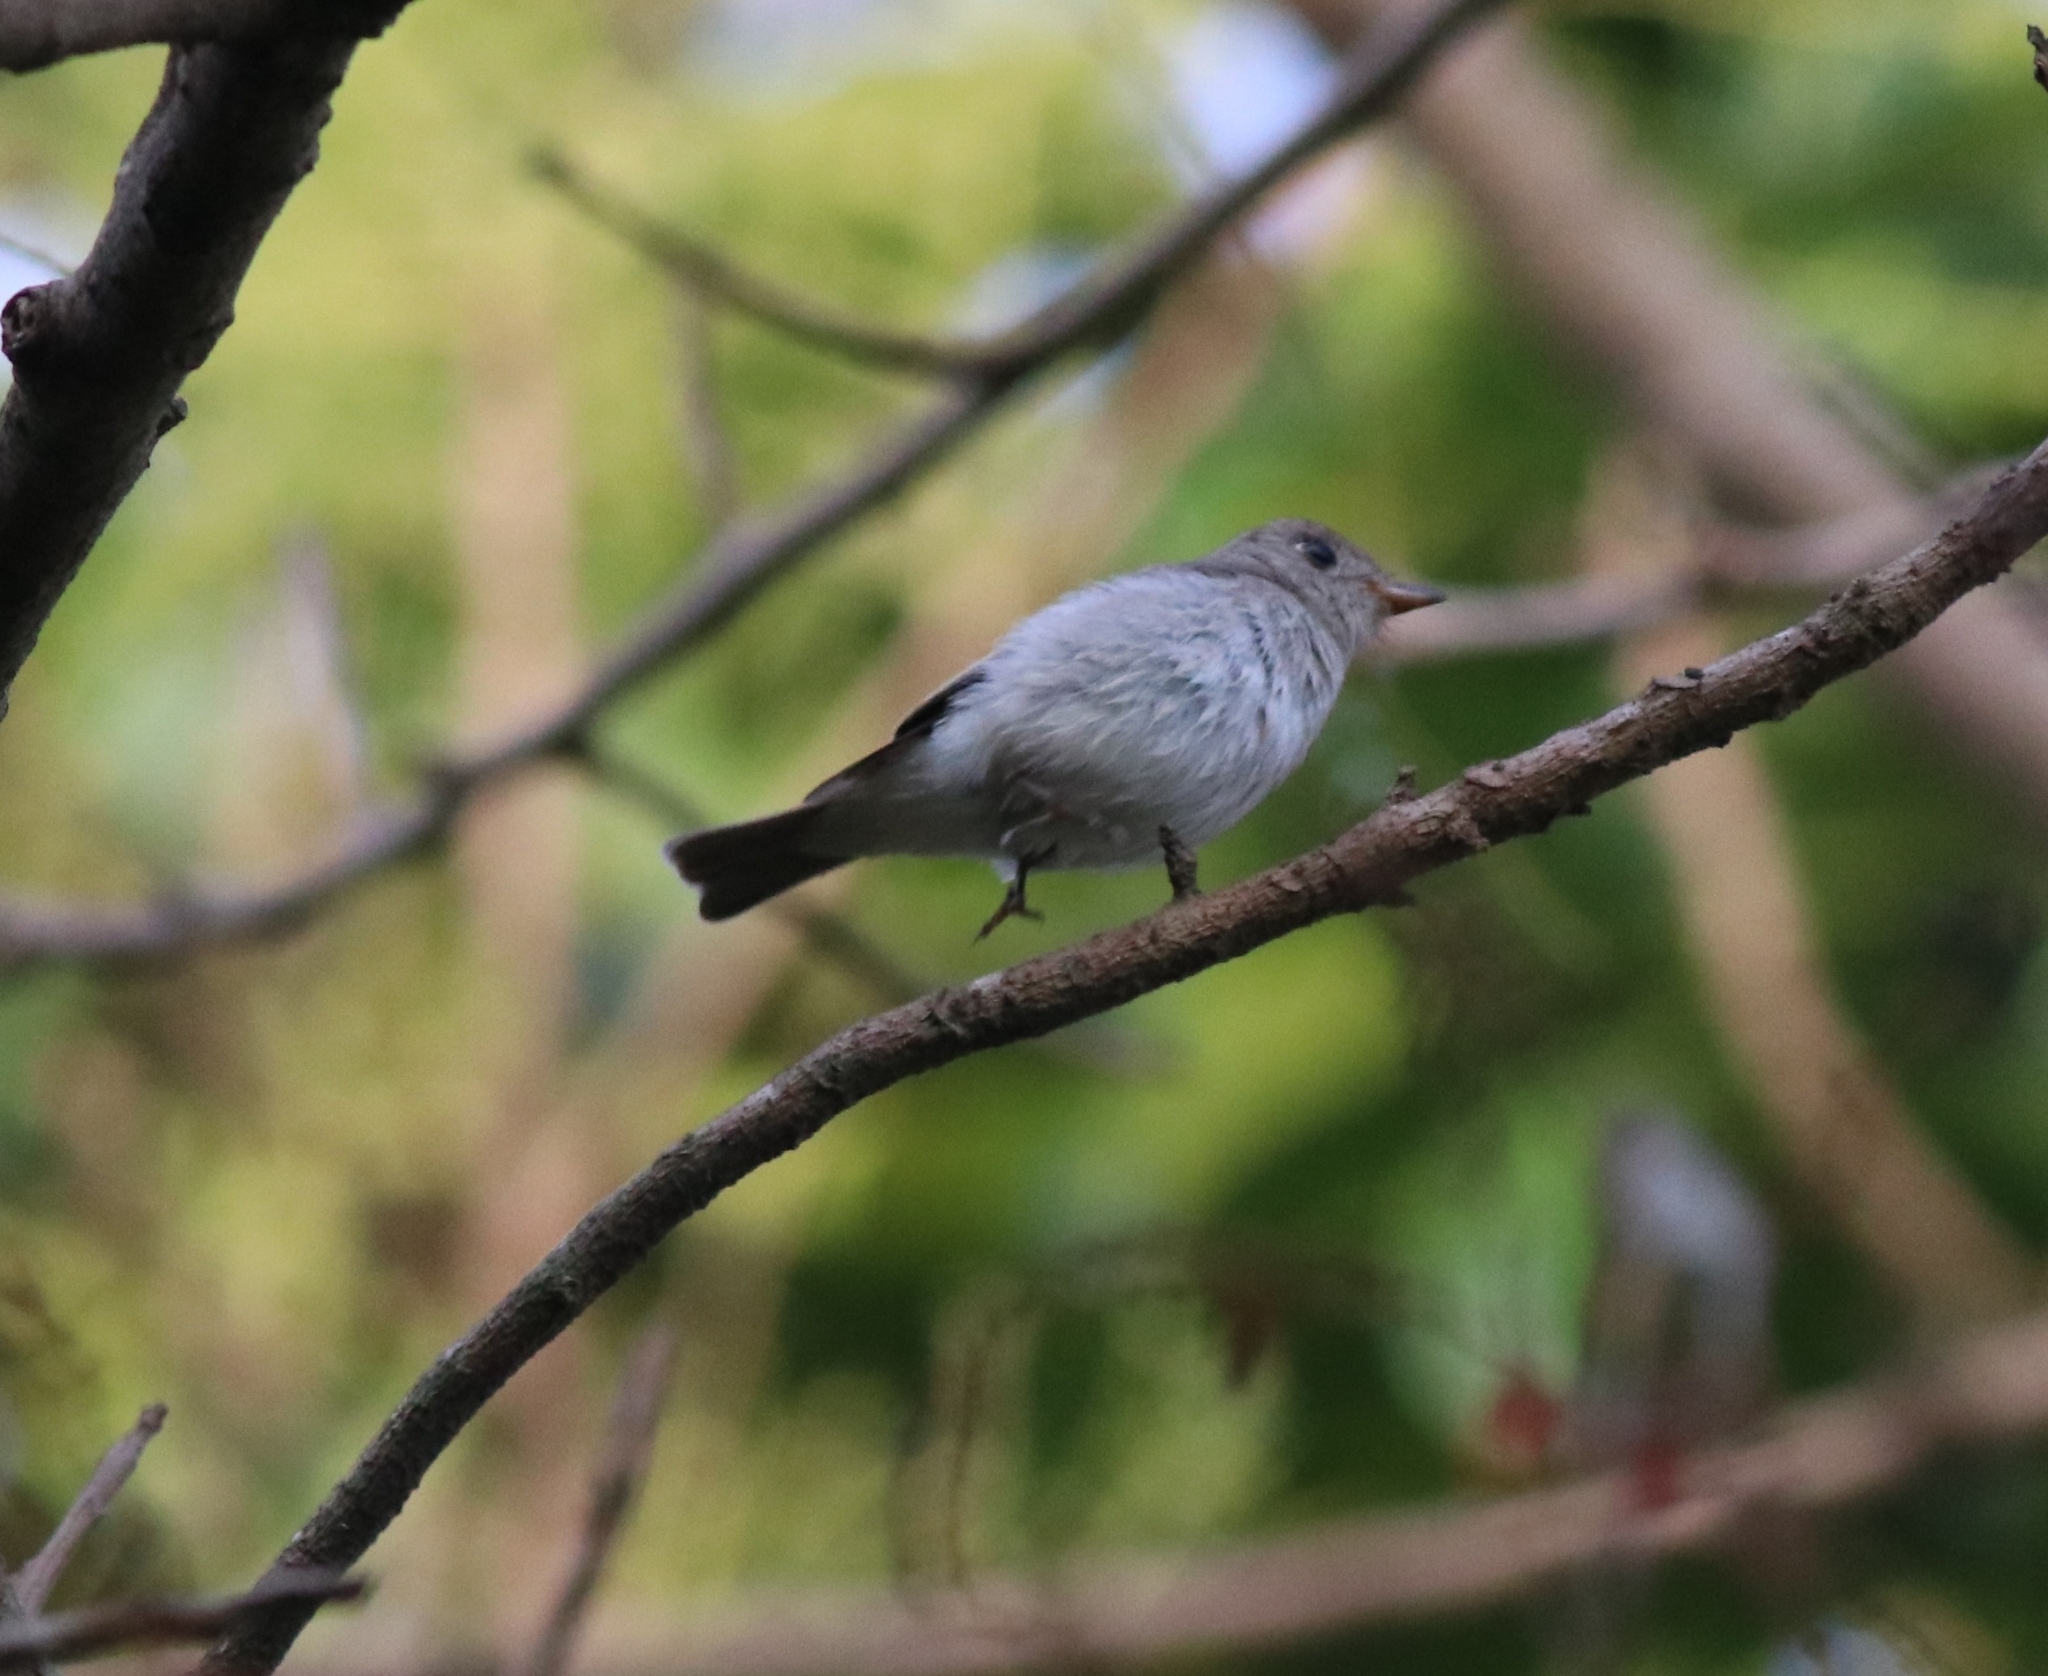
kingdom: Animalia
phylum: Chordata
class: Aves
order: Passeriformes
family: Muscicapidae
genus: Muscicapa
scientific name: Muscicapa latirostris
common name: Asian brown flycatcher
